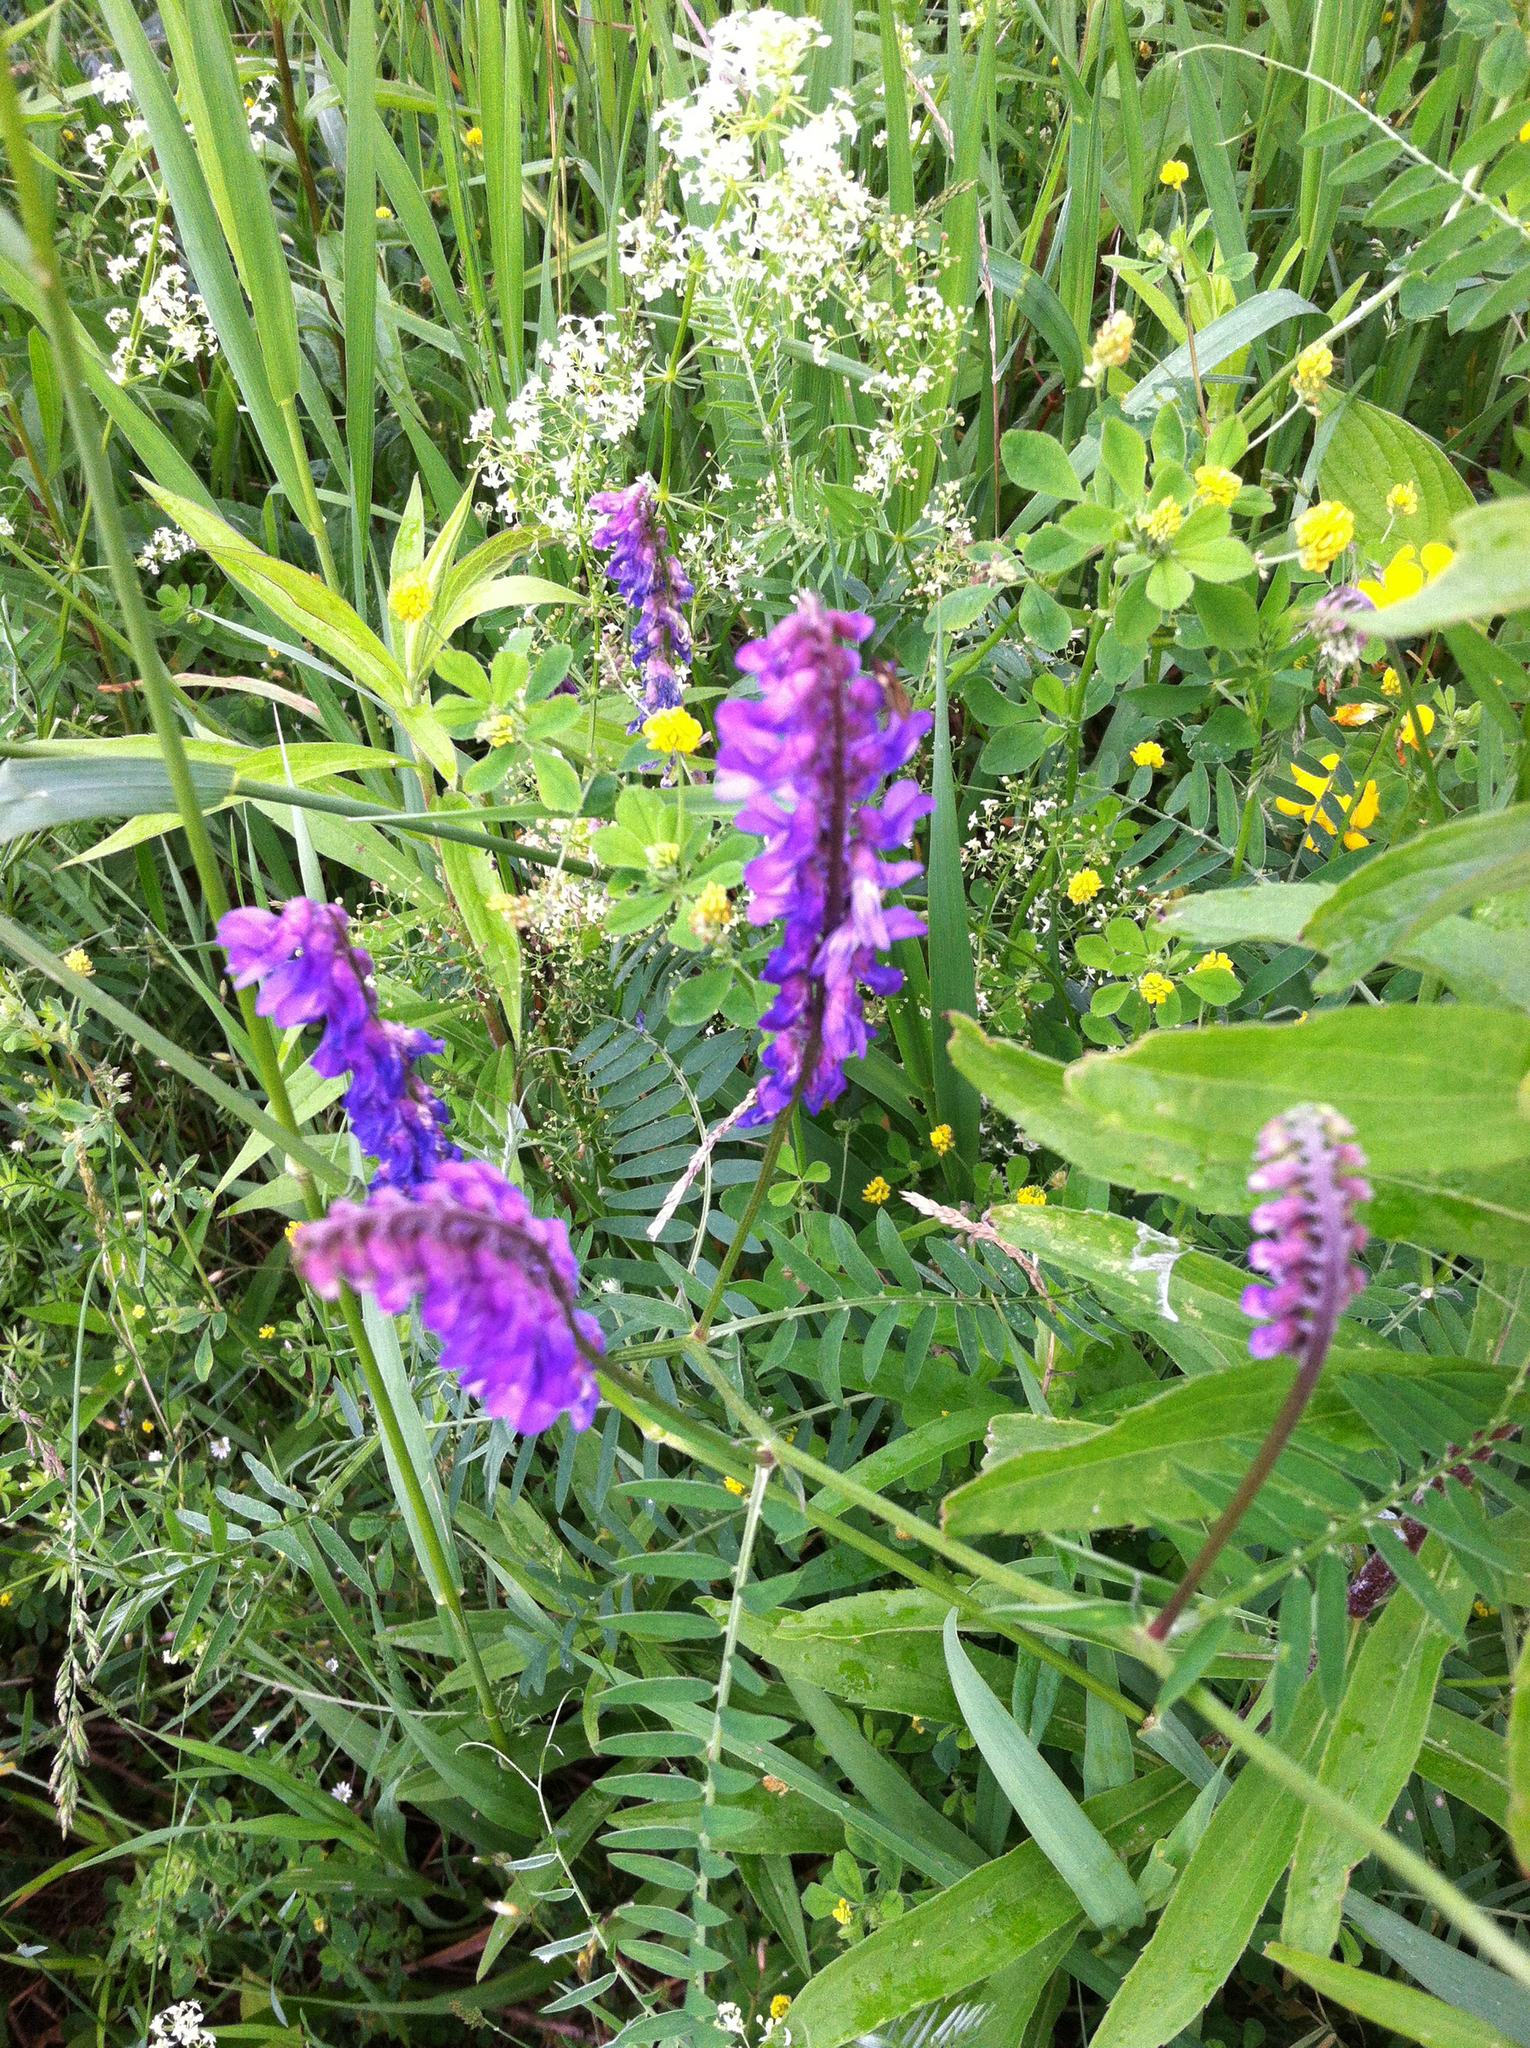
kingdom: Plantae
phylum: Tracheophyta
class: Magnoliopsida
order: Fabales
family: Fabaceae
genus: Vicia
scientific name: Vicia cracca
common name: Bird vetch
